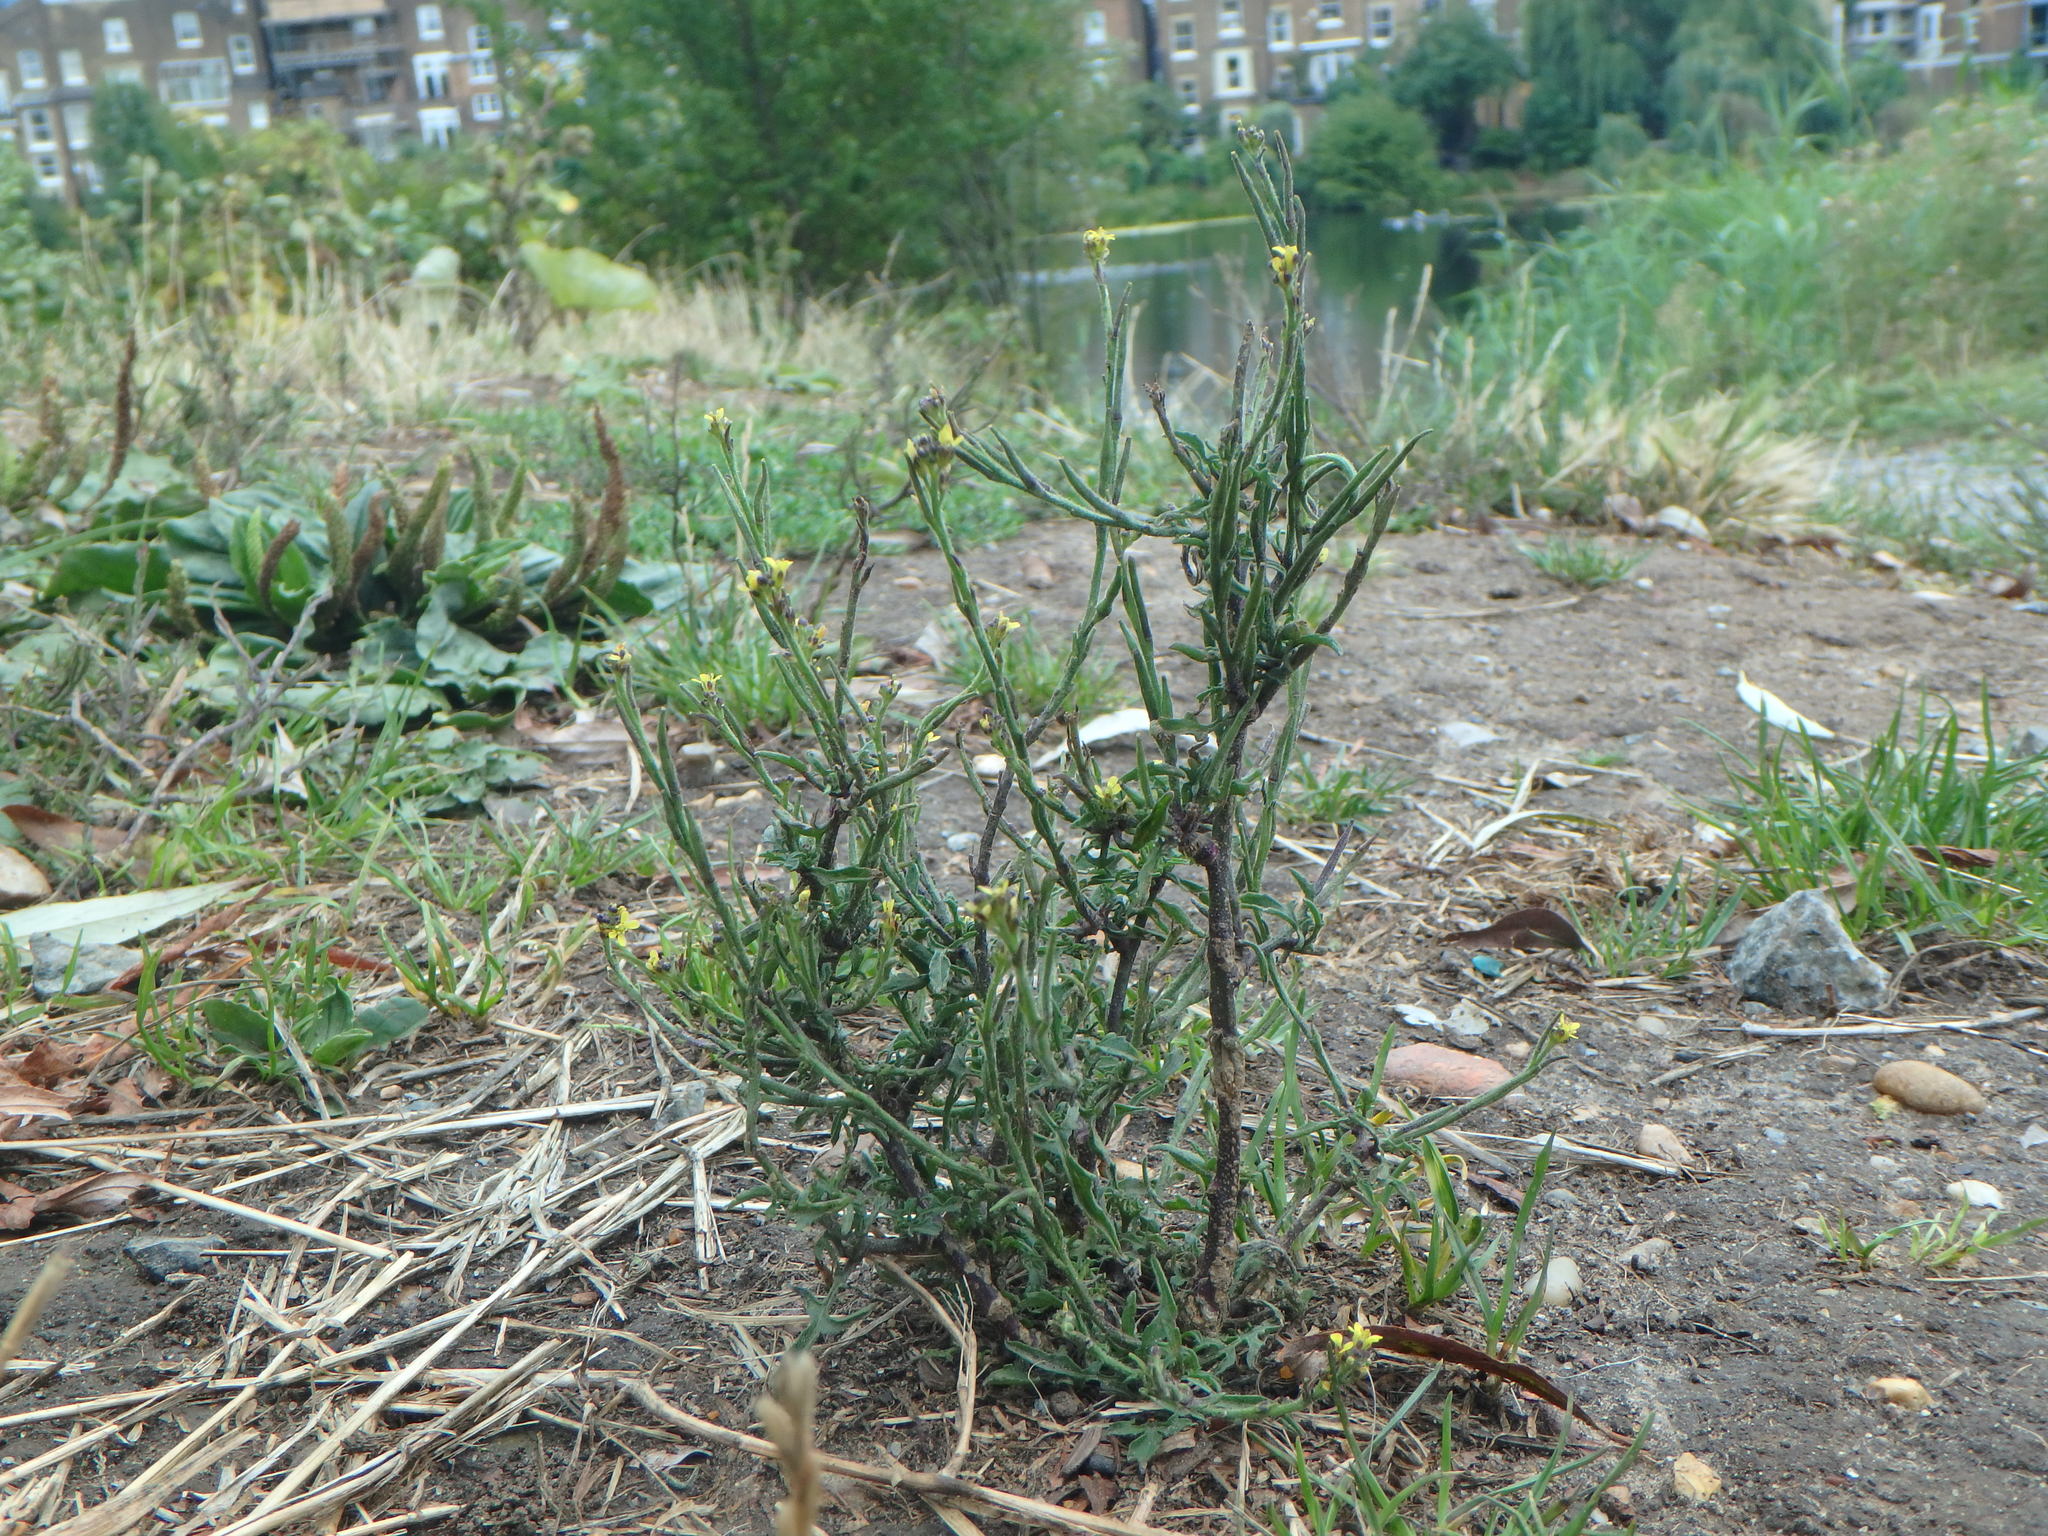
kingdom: Plantae
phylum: Tracheophyta
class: Magnoliopsida
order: Brassicales
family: Brassicaceae
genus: Sisymbrium
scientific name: Sisymbrium officinale
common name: Hedge mustard
